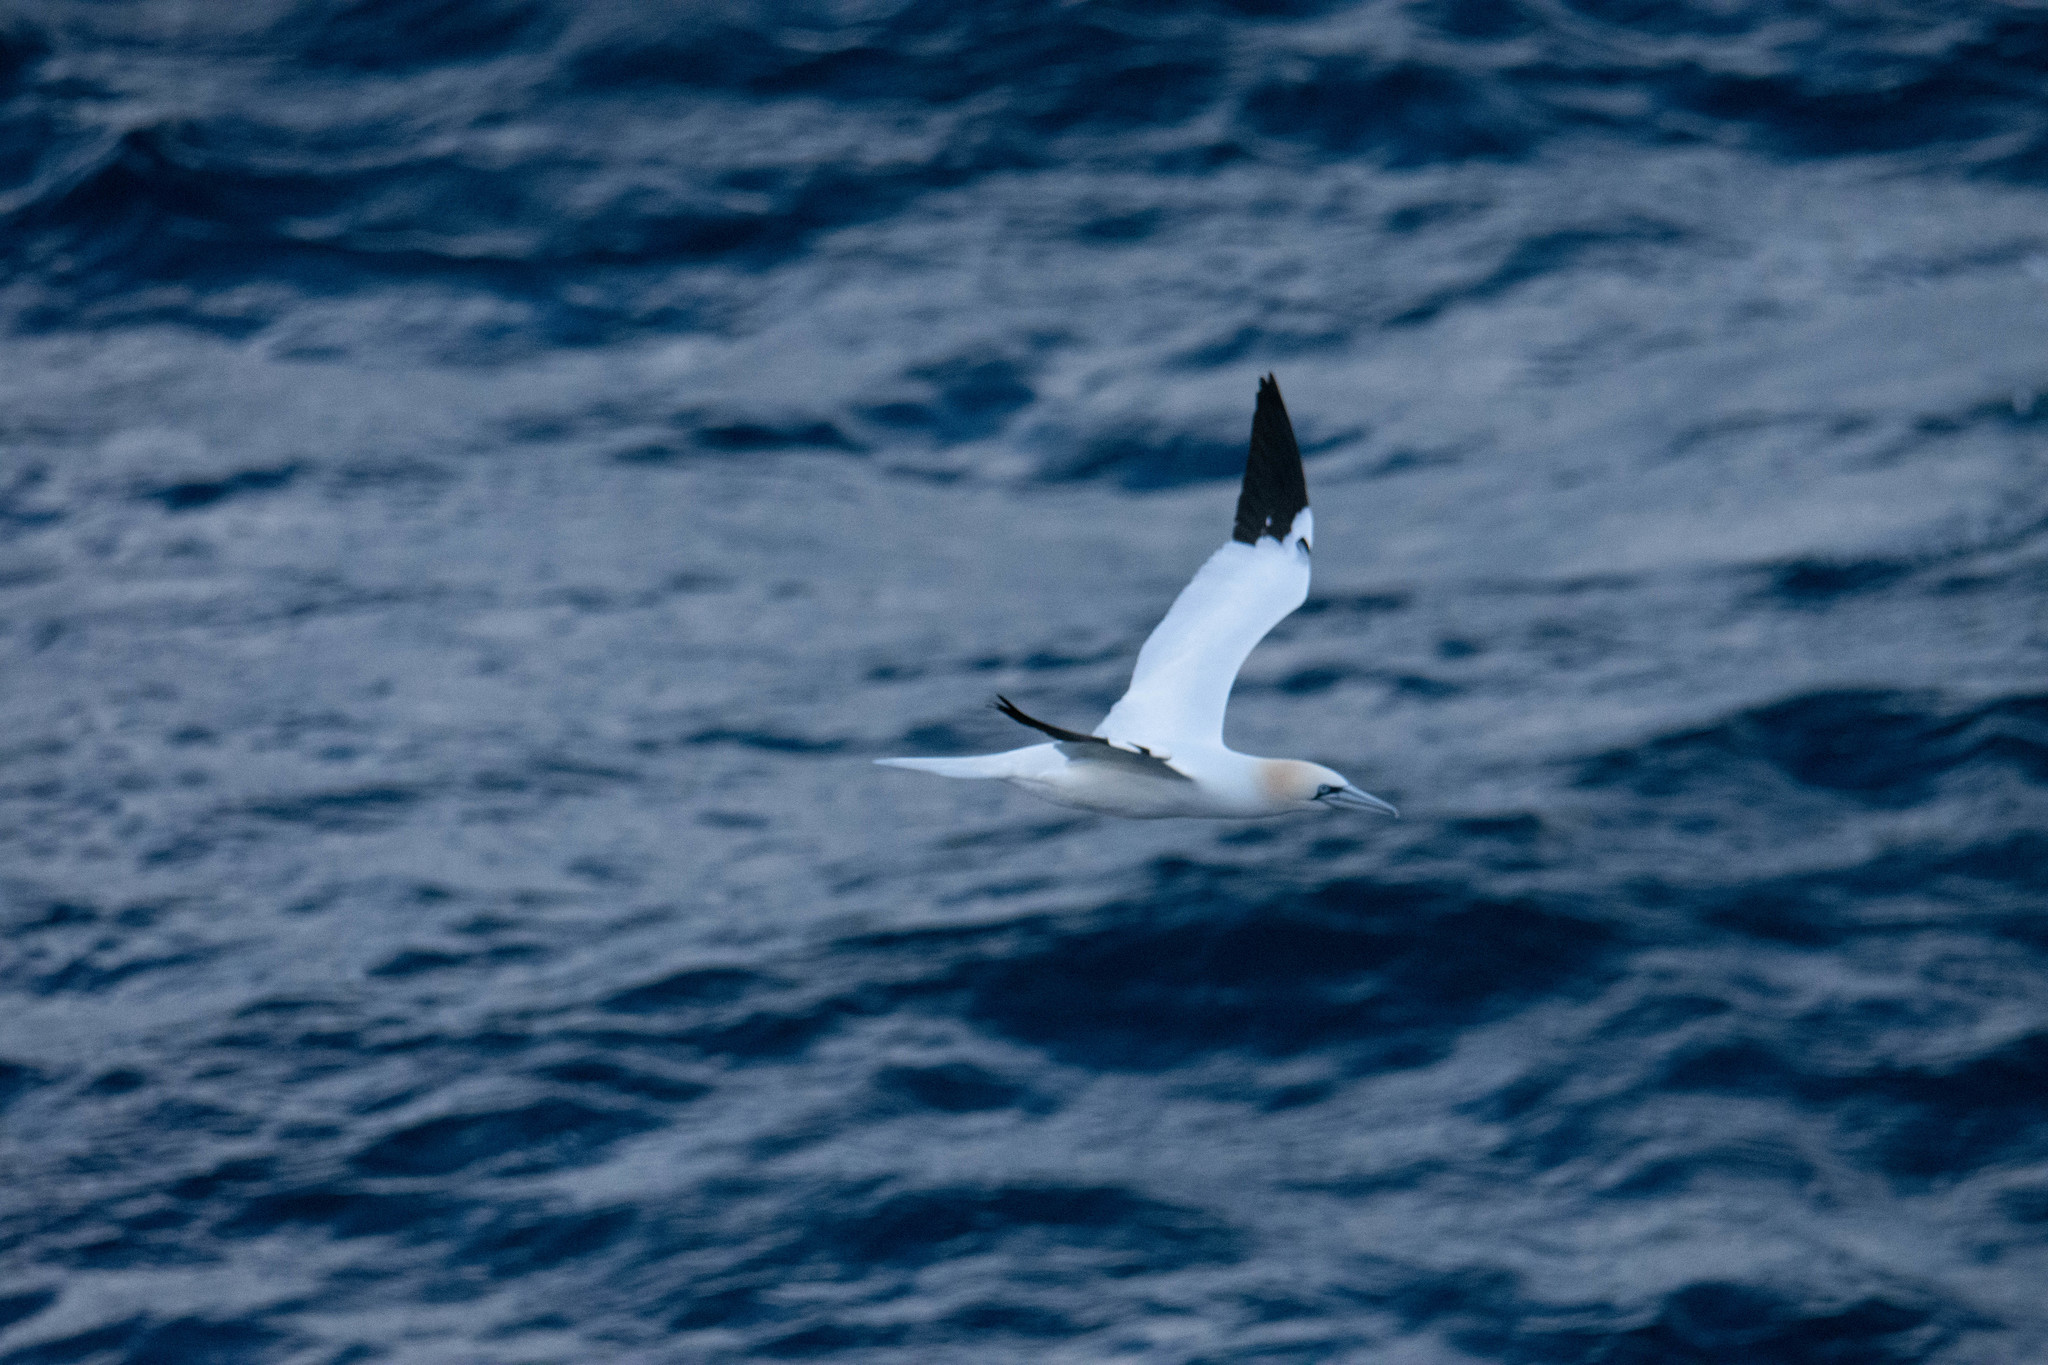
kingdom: Animalia
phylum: Chordata
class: Aves
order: Suliformes
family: Sulidae
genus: Morus
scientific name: Morus bassanus
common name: Northern gannet
